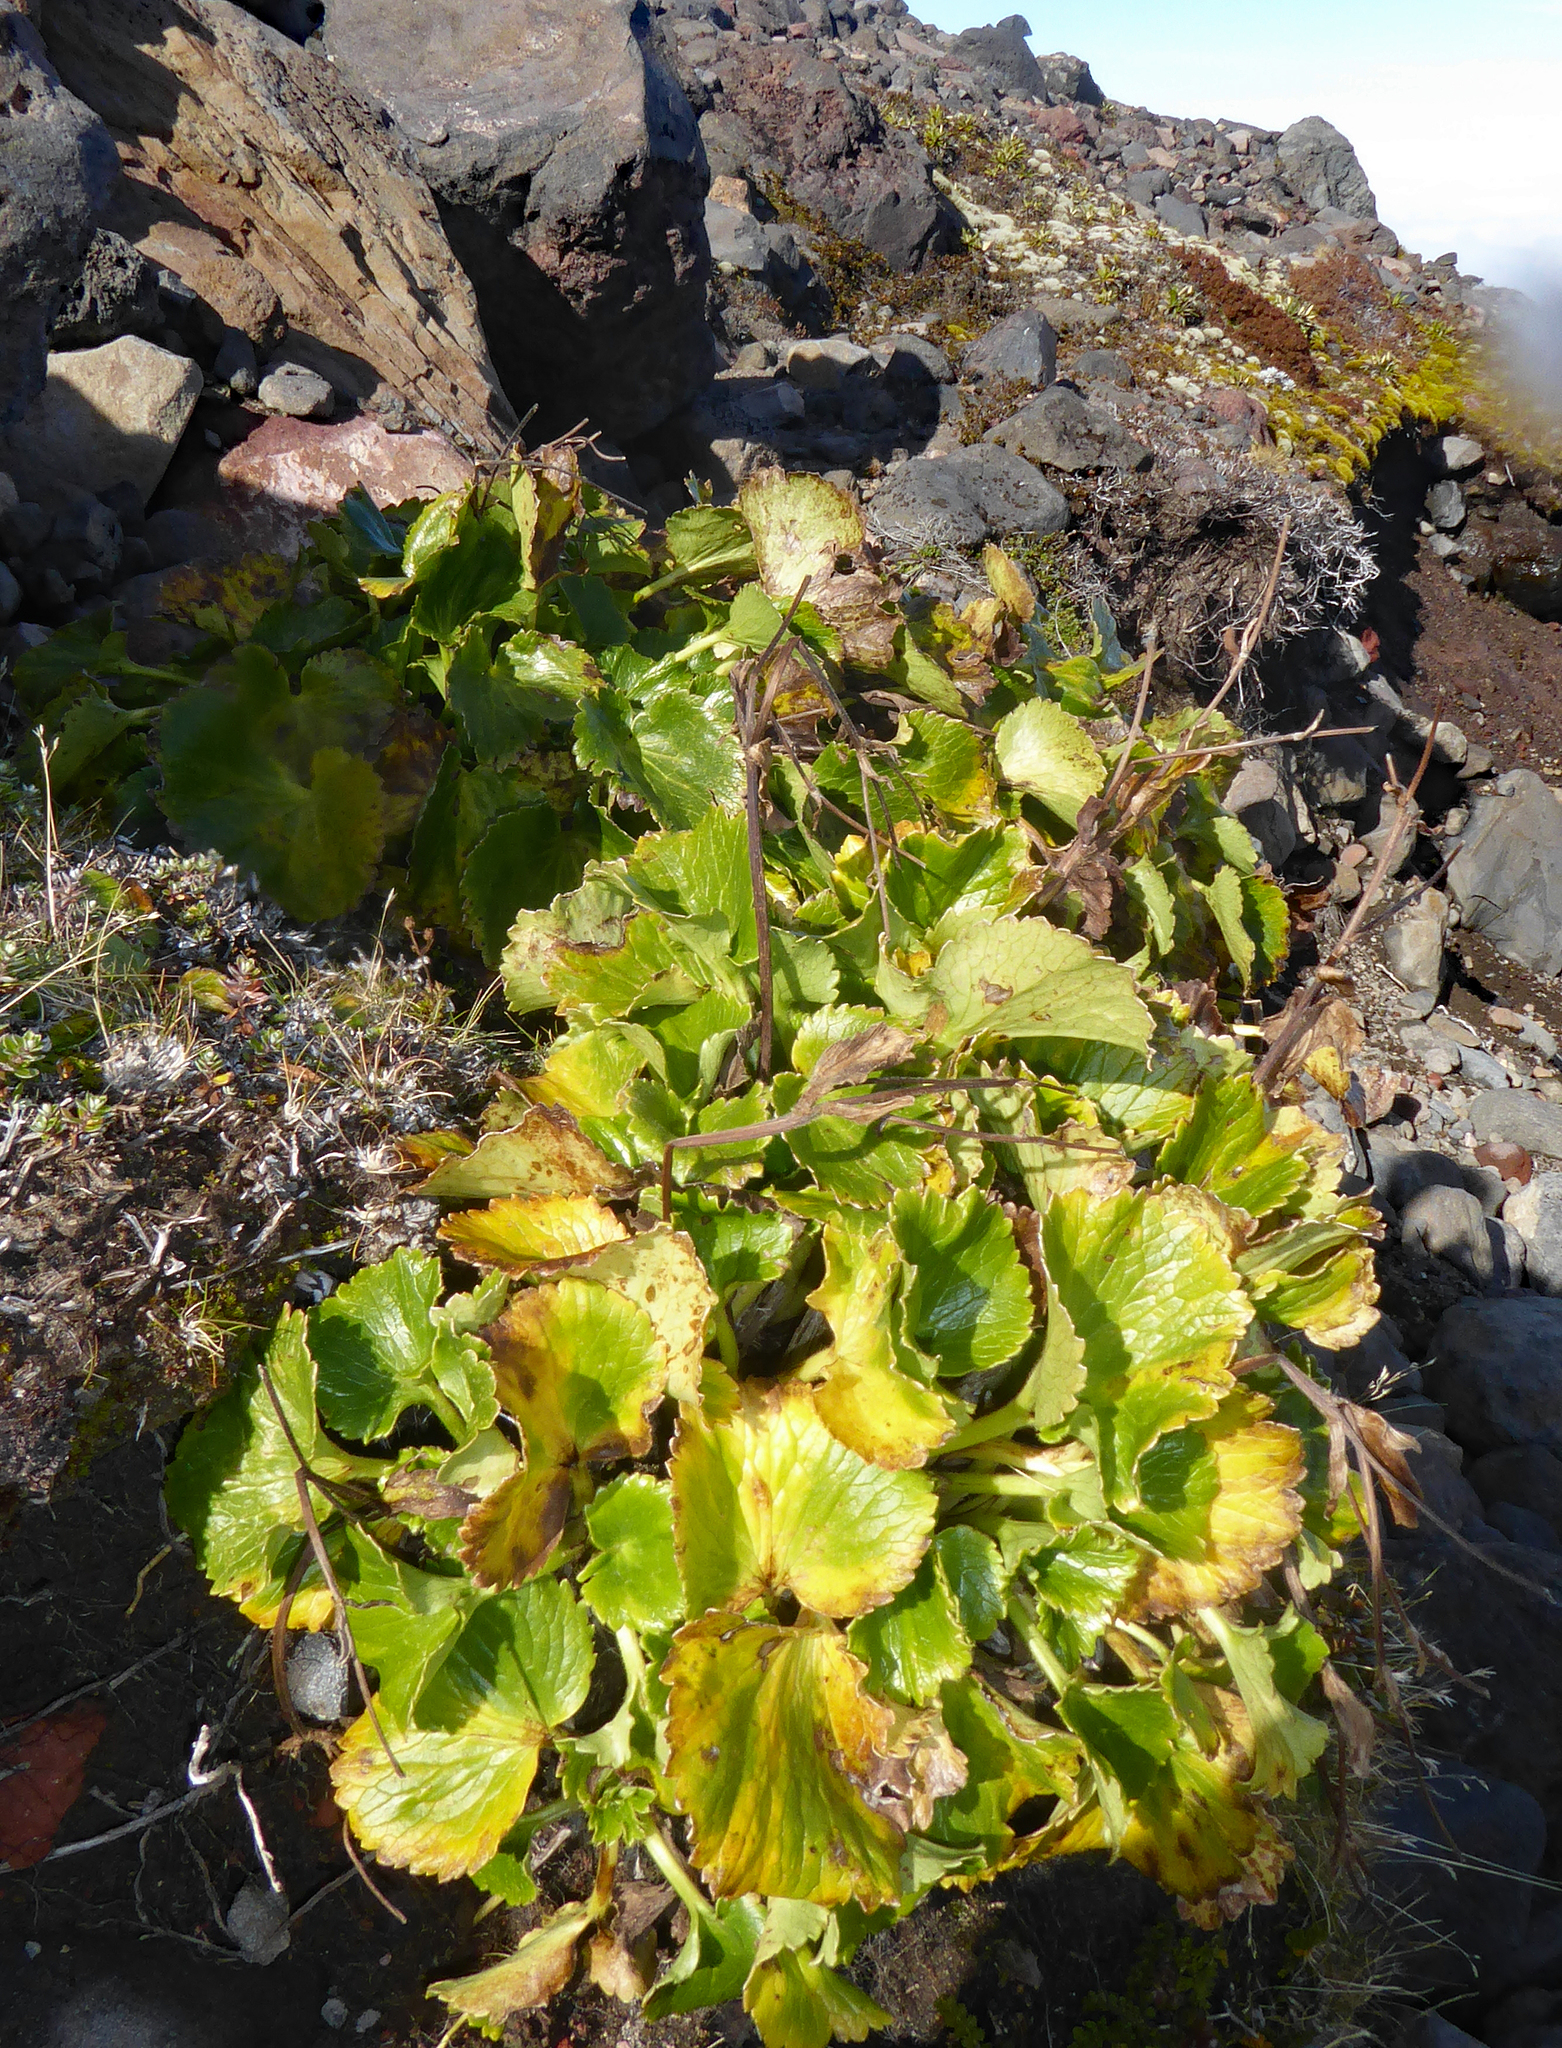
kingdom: Plantae
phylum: Tracheophyta
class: Magnoliopsida
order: Ranunculales
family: Ranunculaceae
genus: Ranunculus
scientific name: Ranunculus insignis
